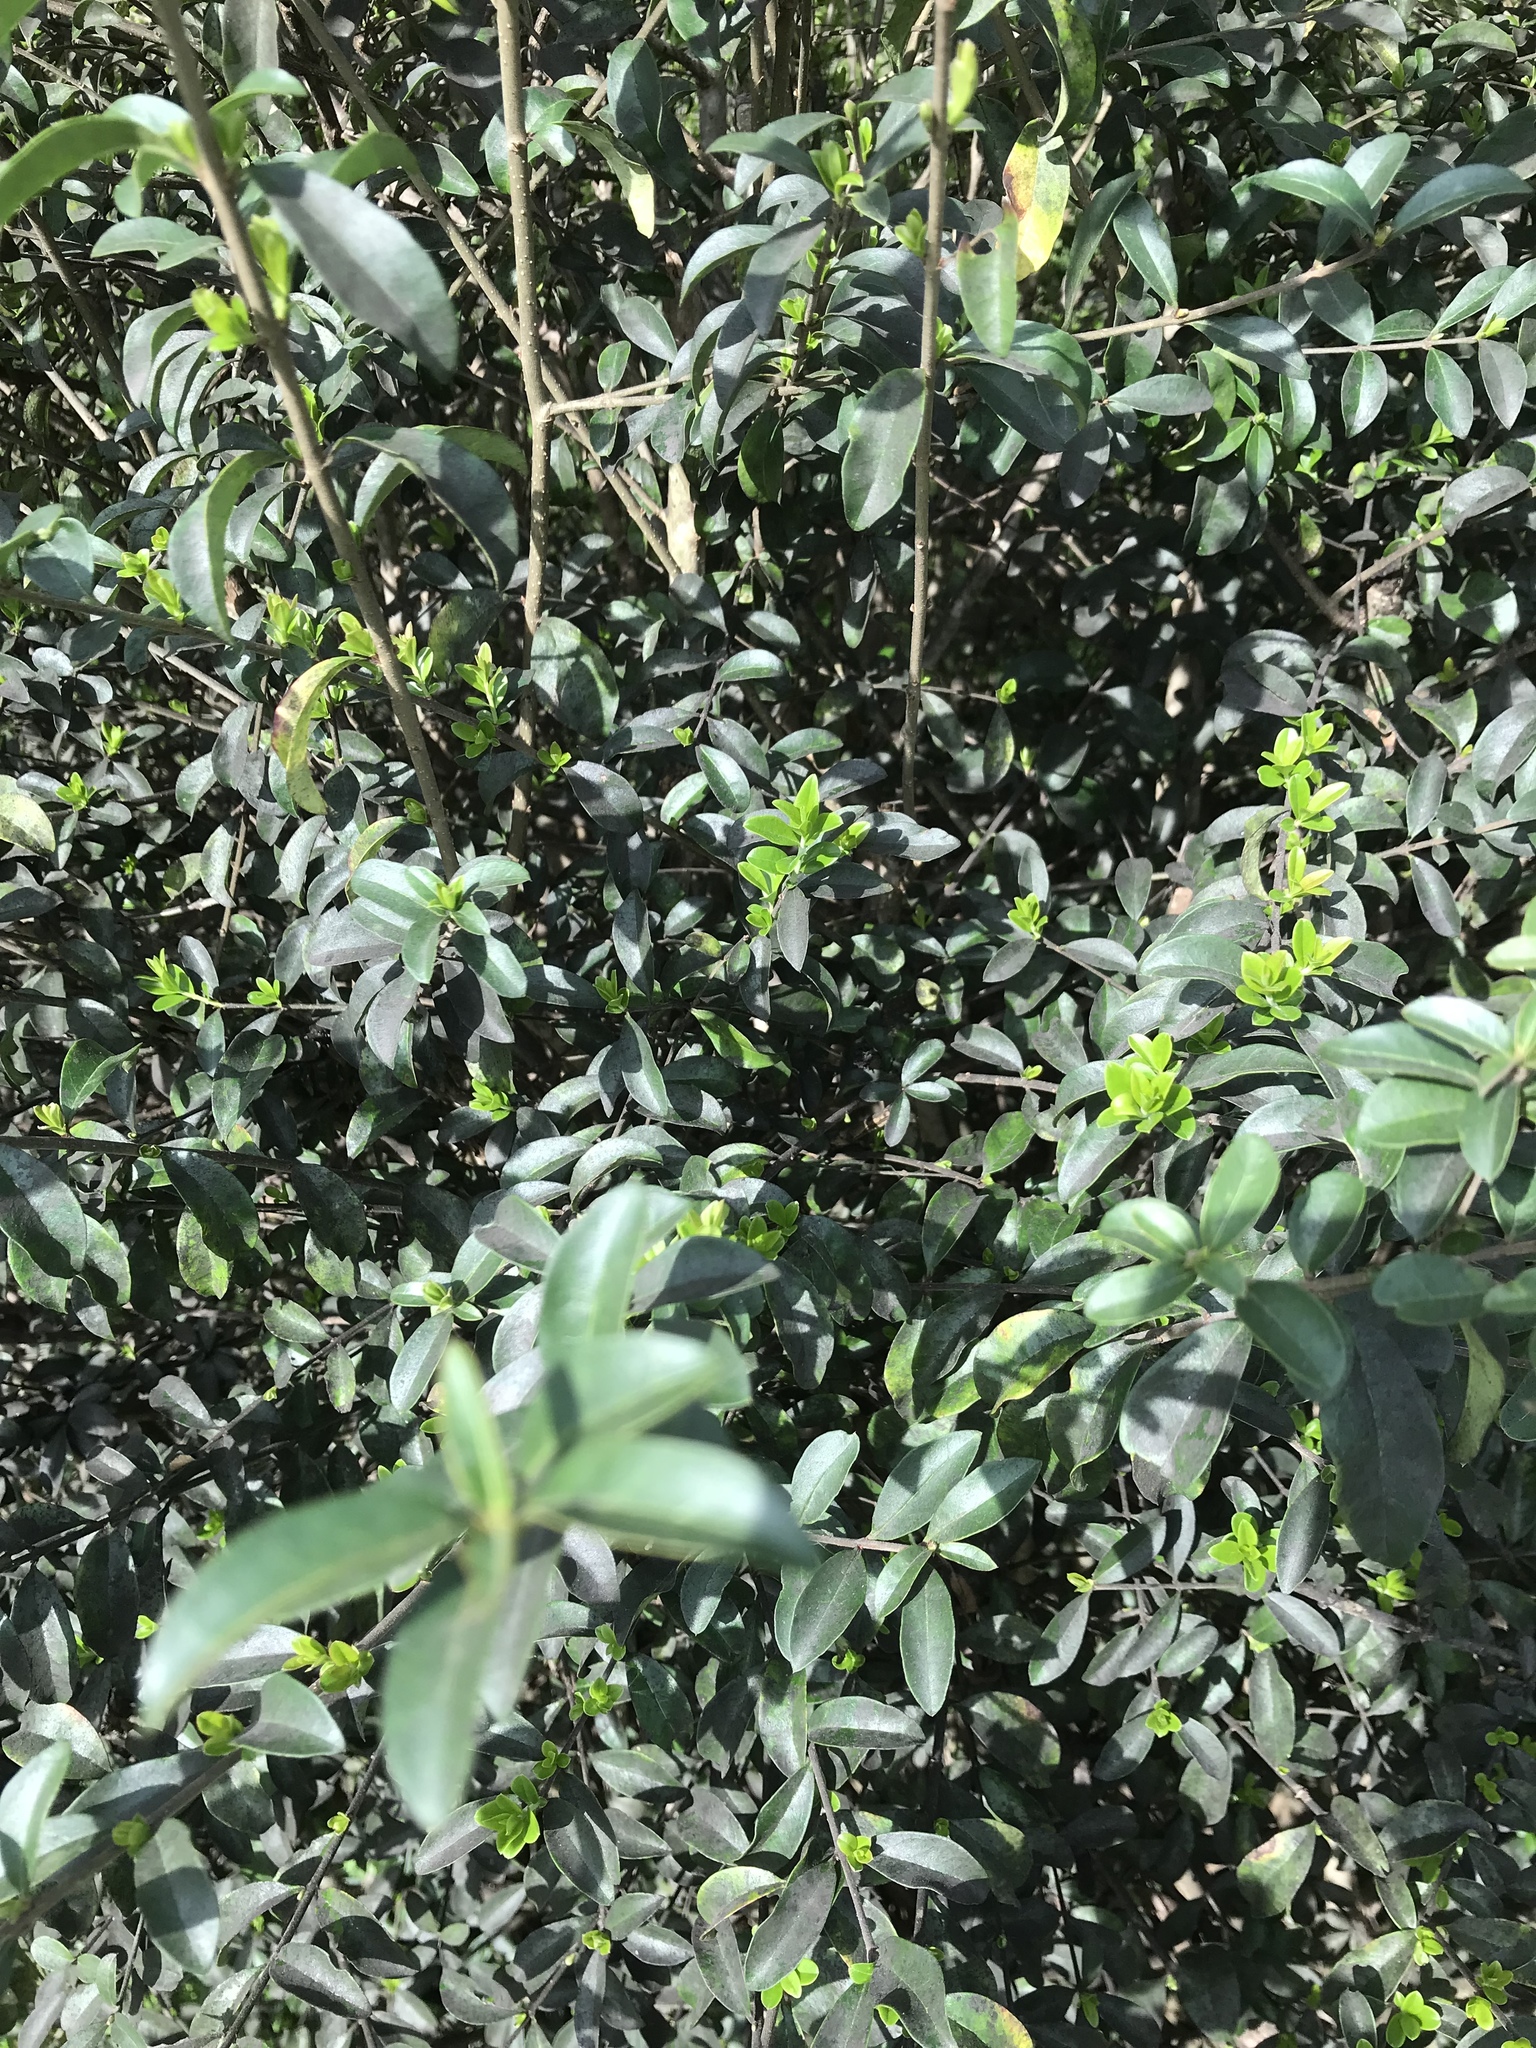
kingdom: Plantae
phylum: Tracheophyta
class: Magnoliopsida
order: Lamiales
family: Oleaceae
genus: Ligustrum
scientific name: Ligustrum lucidum
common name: Glossy privet
